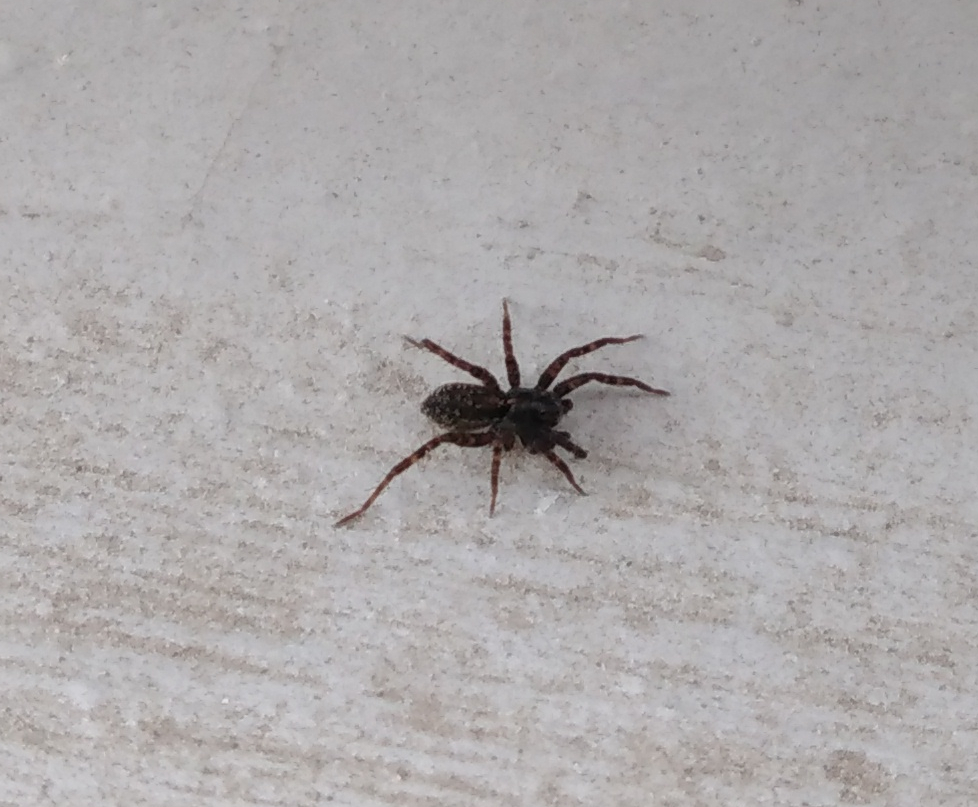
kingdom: Animalia
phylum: Arthropoda
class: Arachnida
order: Araneae
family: Lycosidae
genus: Pardosa
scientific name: Pardosa
